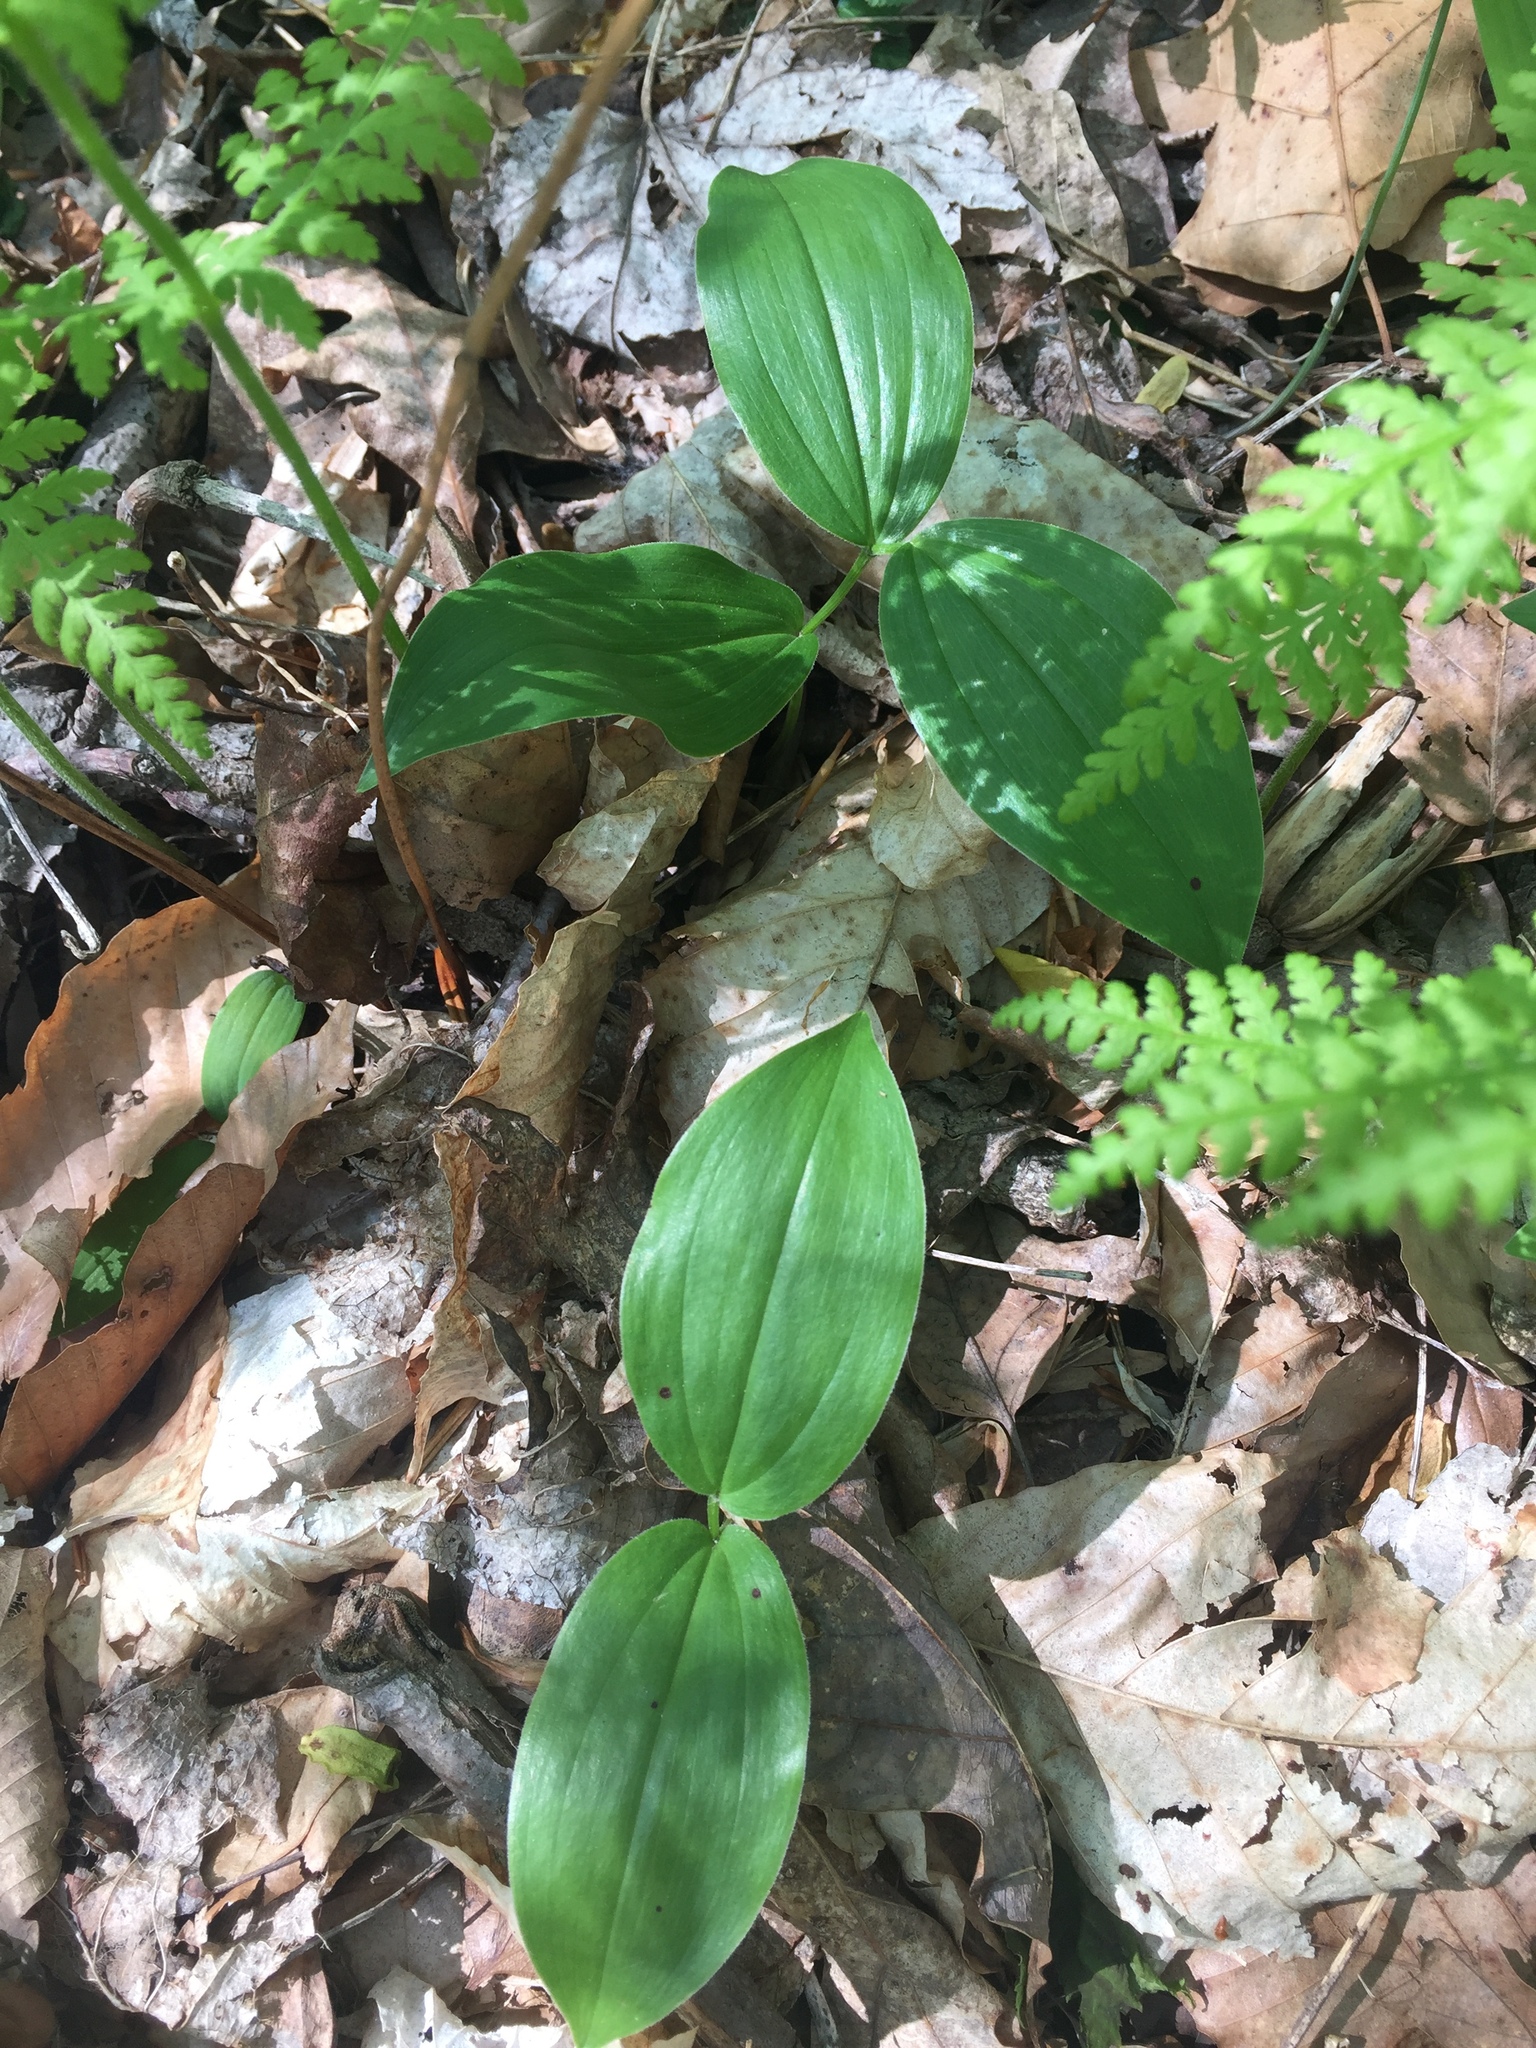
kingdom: Plantae
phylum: Tracheophyta
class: Liliopsida
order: Asparagales
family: Asparagaceae
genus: Maianthemum
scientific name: Maianthemum racemosum
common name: False spikenard
